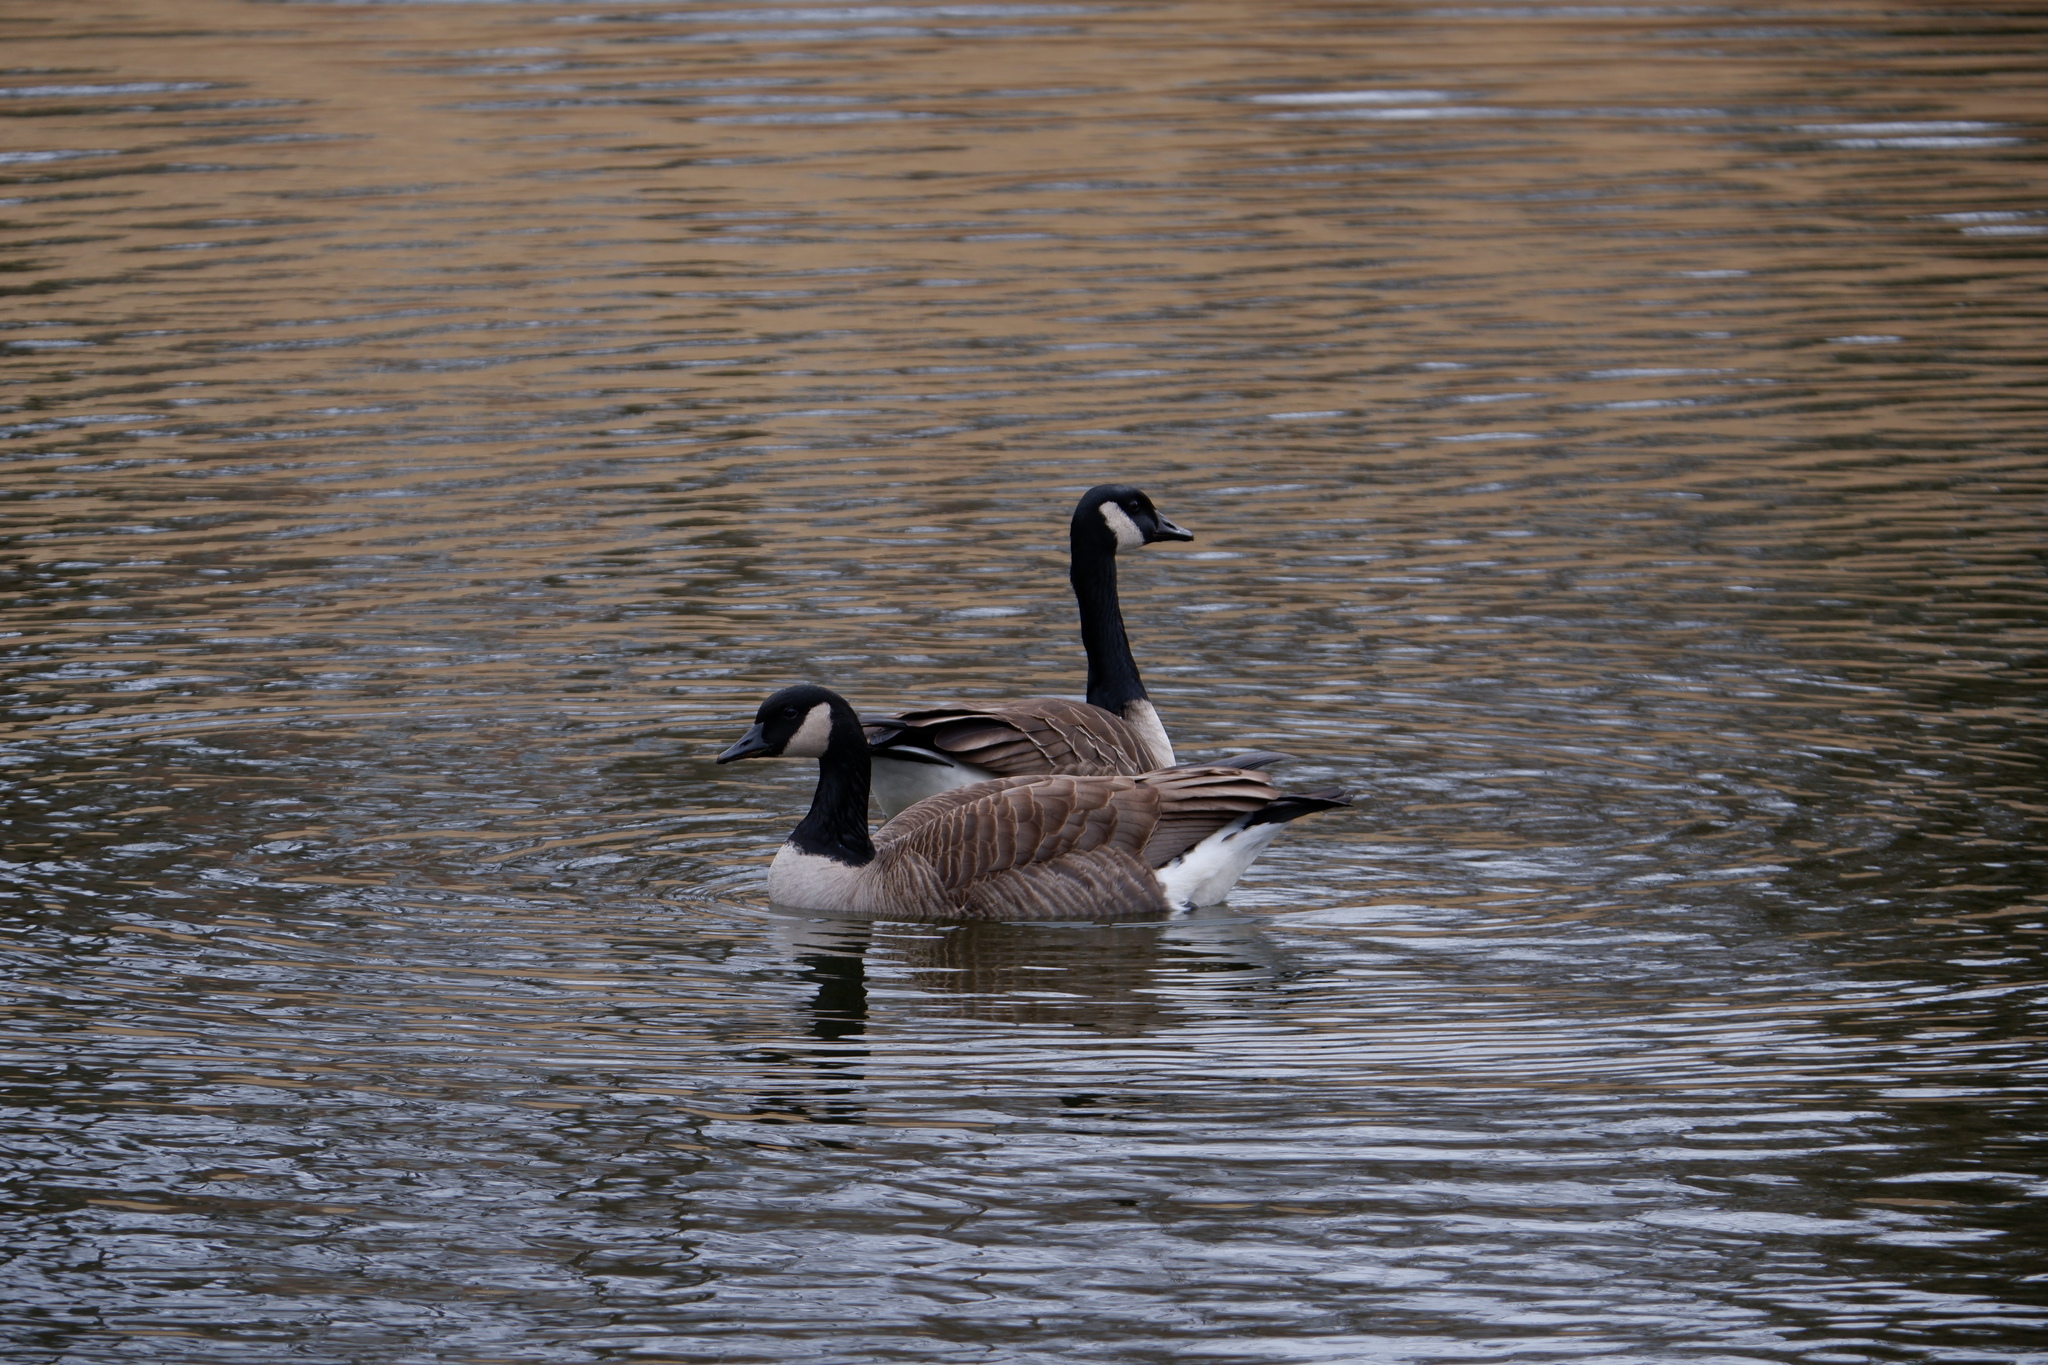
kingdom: Animalia
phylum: Chordata
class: Aves
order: Anseriformes
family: Anatidae
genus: Branta
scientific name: Branta canadensis
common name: Canada goose
